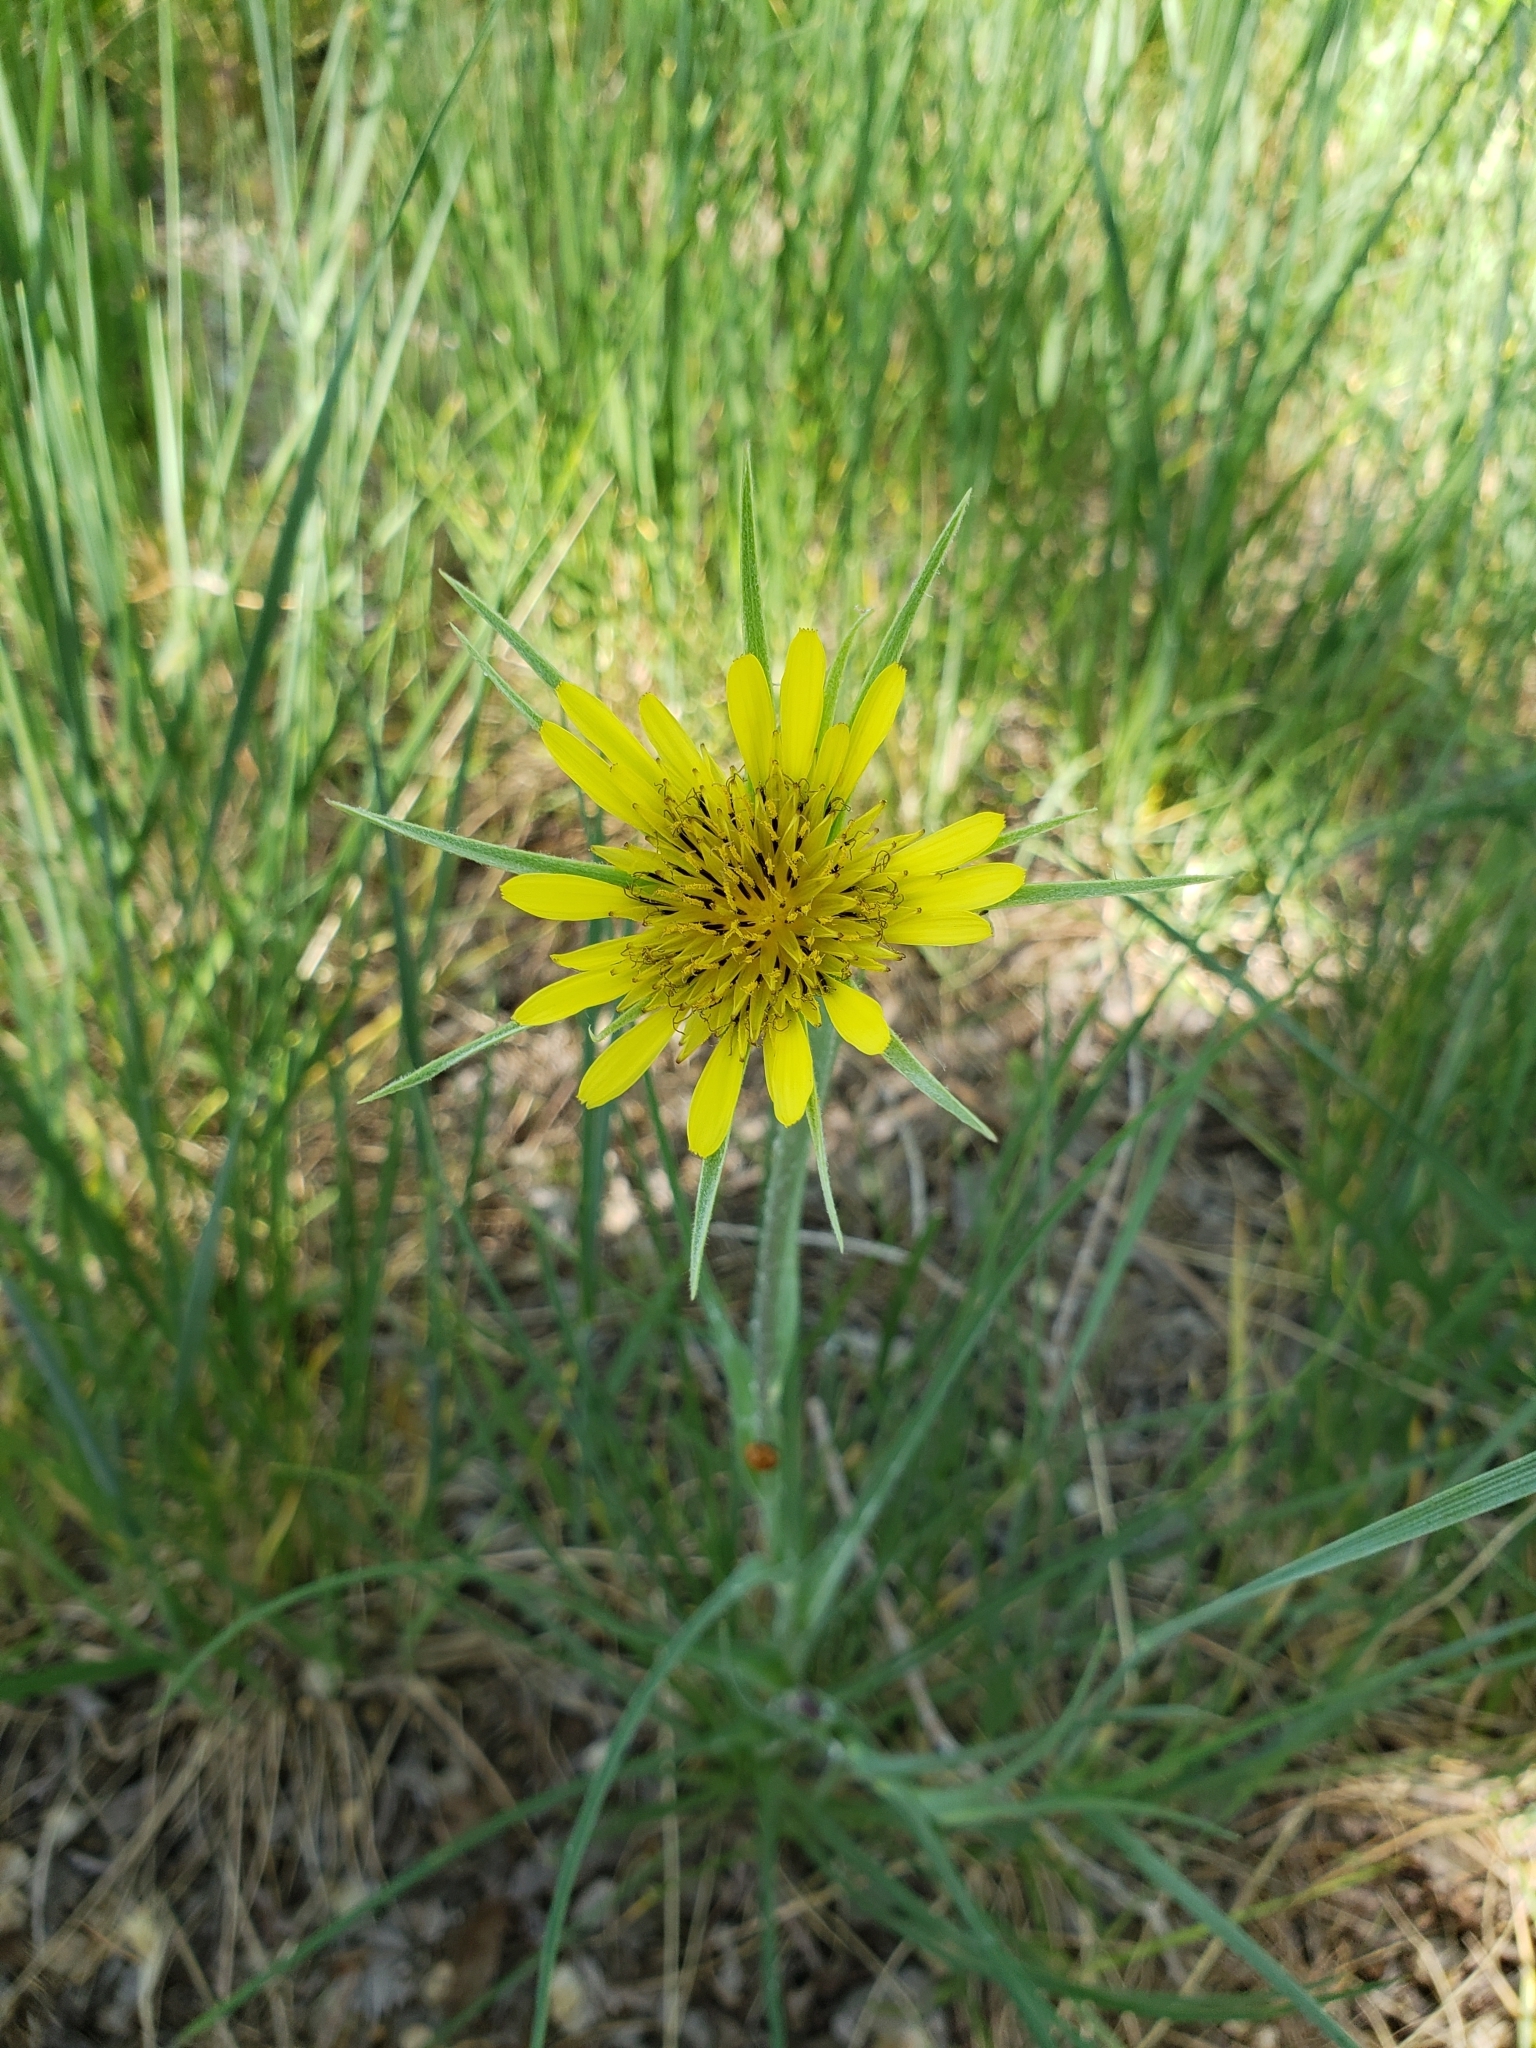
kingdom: Plantae
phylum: Tracheophyta
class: Magnoliopsida
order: Asterales
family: Asteraceae
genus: Tragopogon
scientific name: Tragopogon dubius
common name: Yellow salsify
